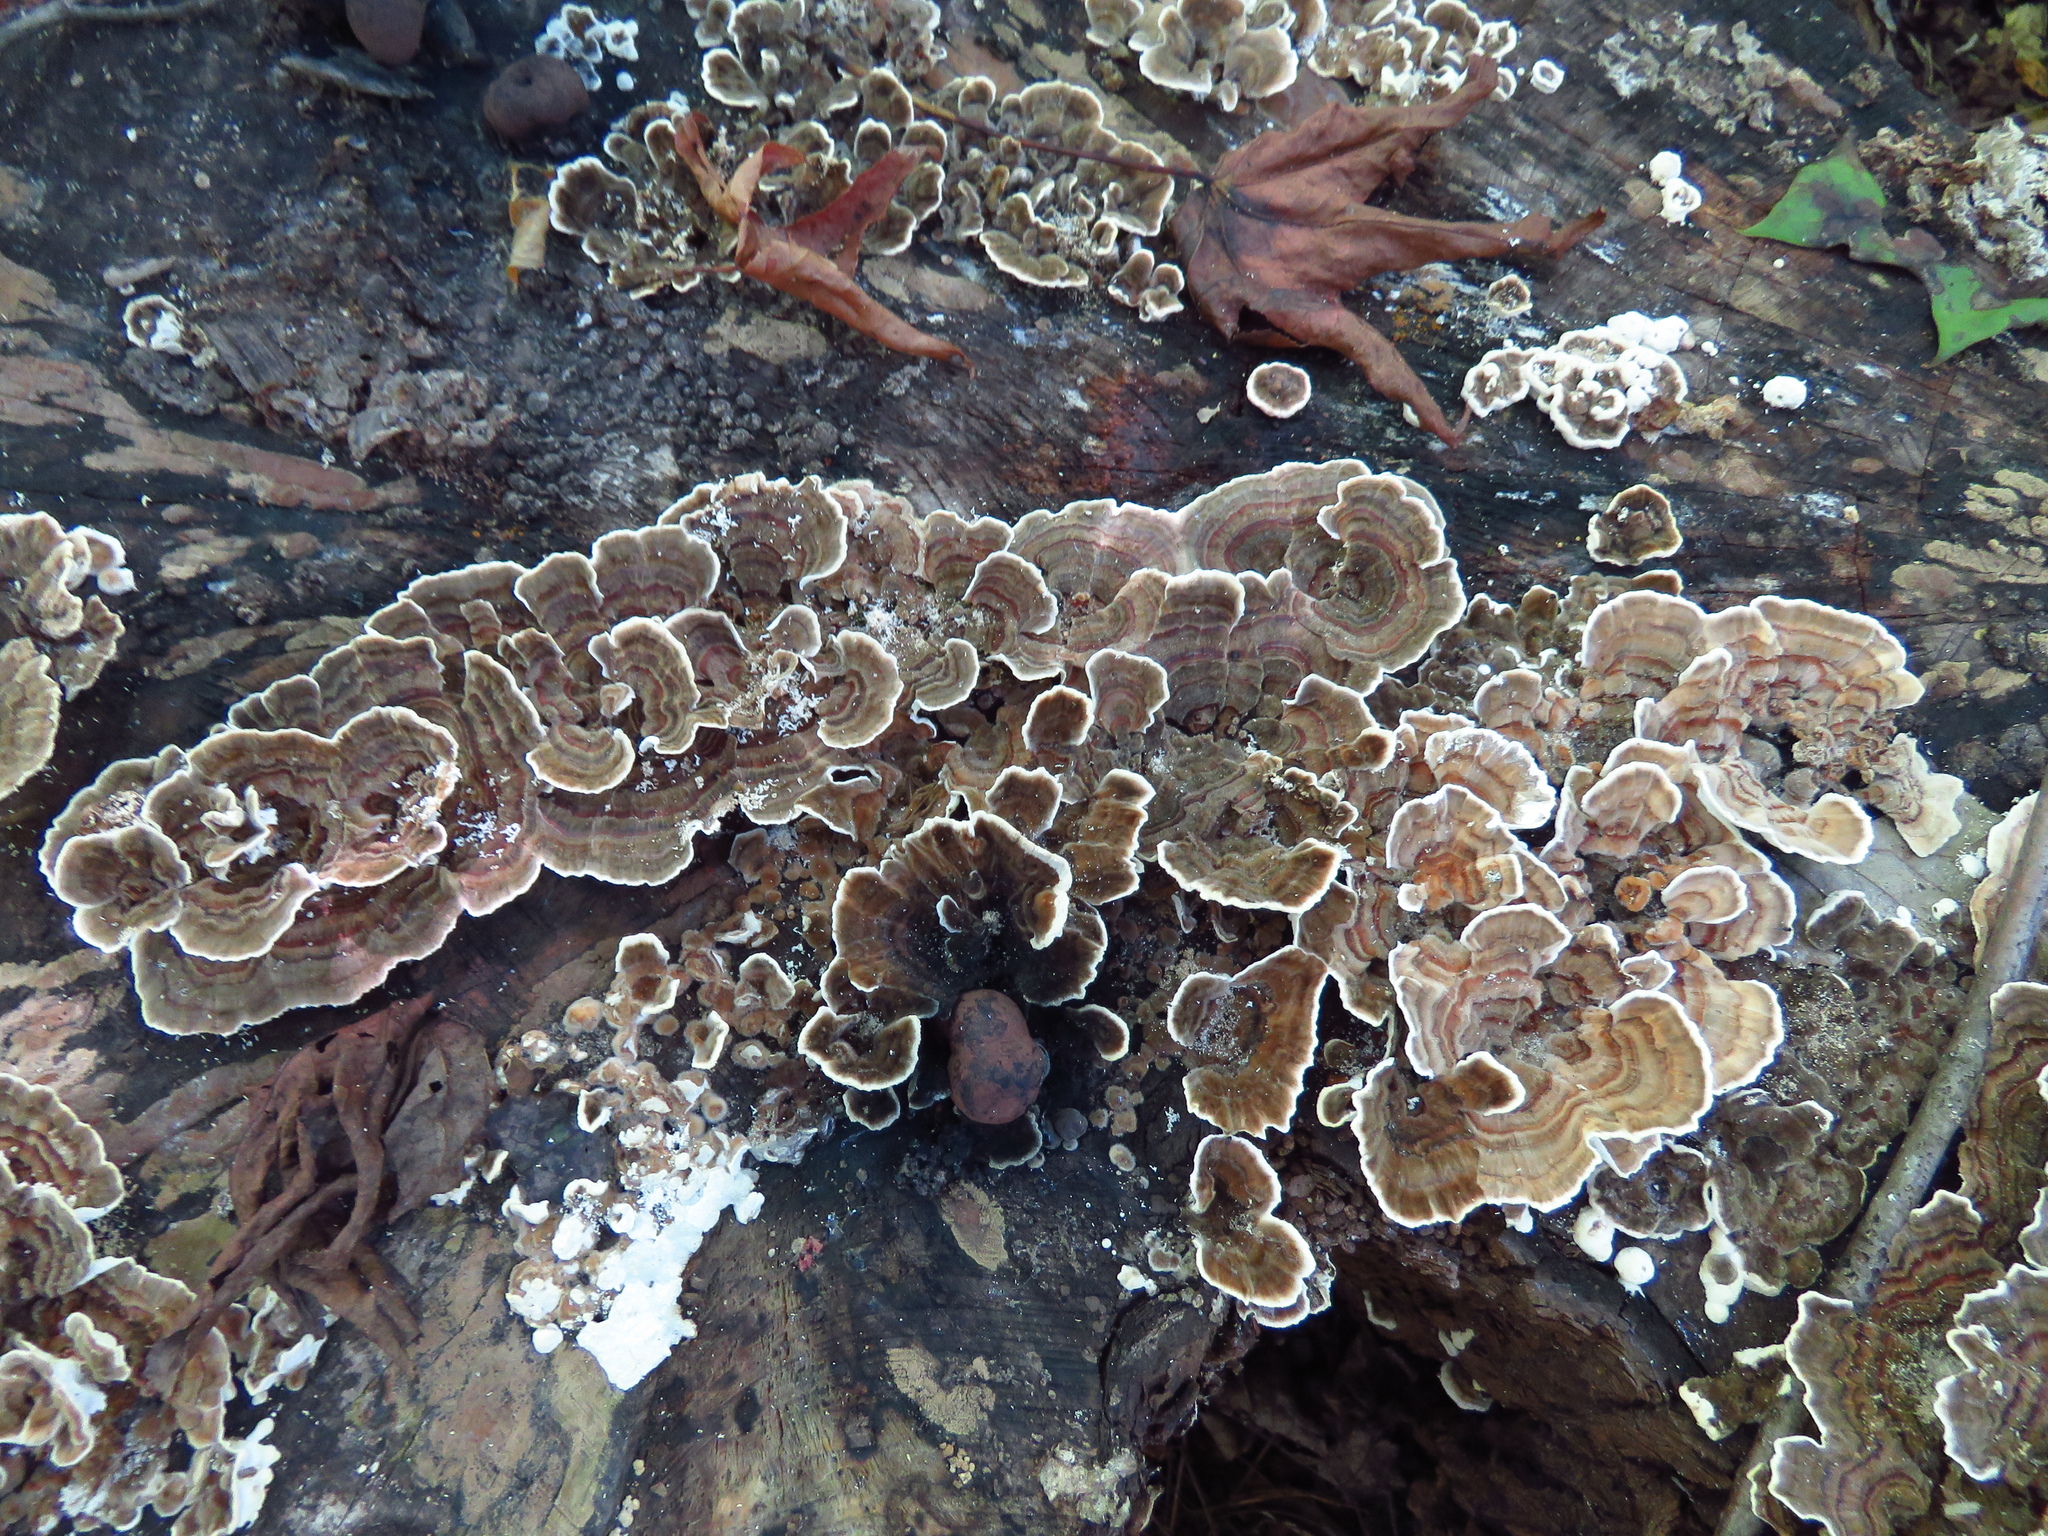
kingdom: Fungi
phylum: Basidiomycota
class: Agaricomycetes
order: Polyporales
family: Polyporaceae
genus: Trametes
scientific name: Trametes versicolor
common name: Turkeytail
